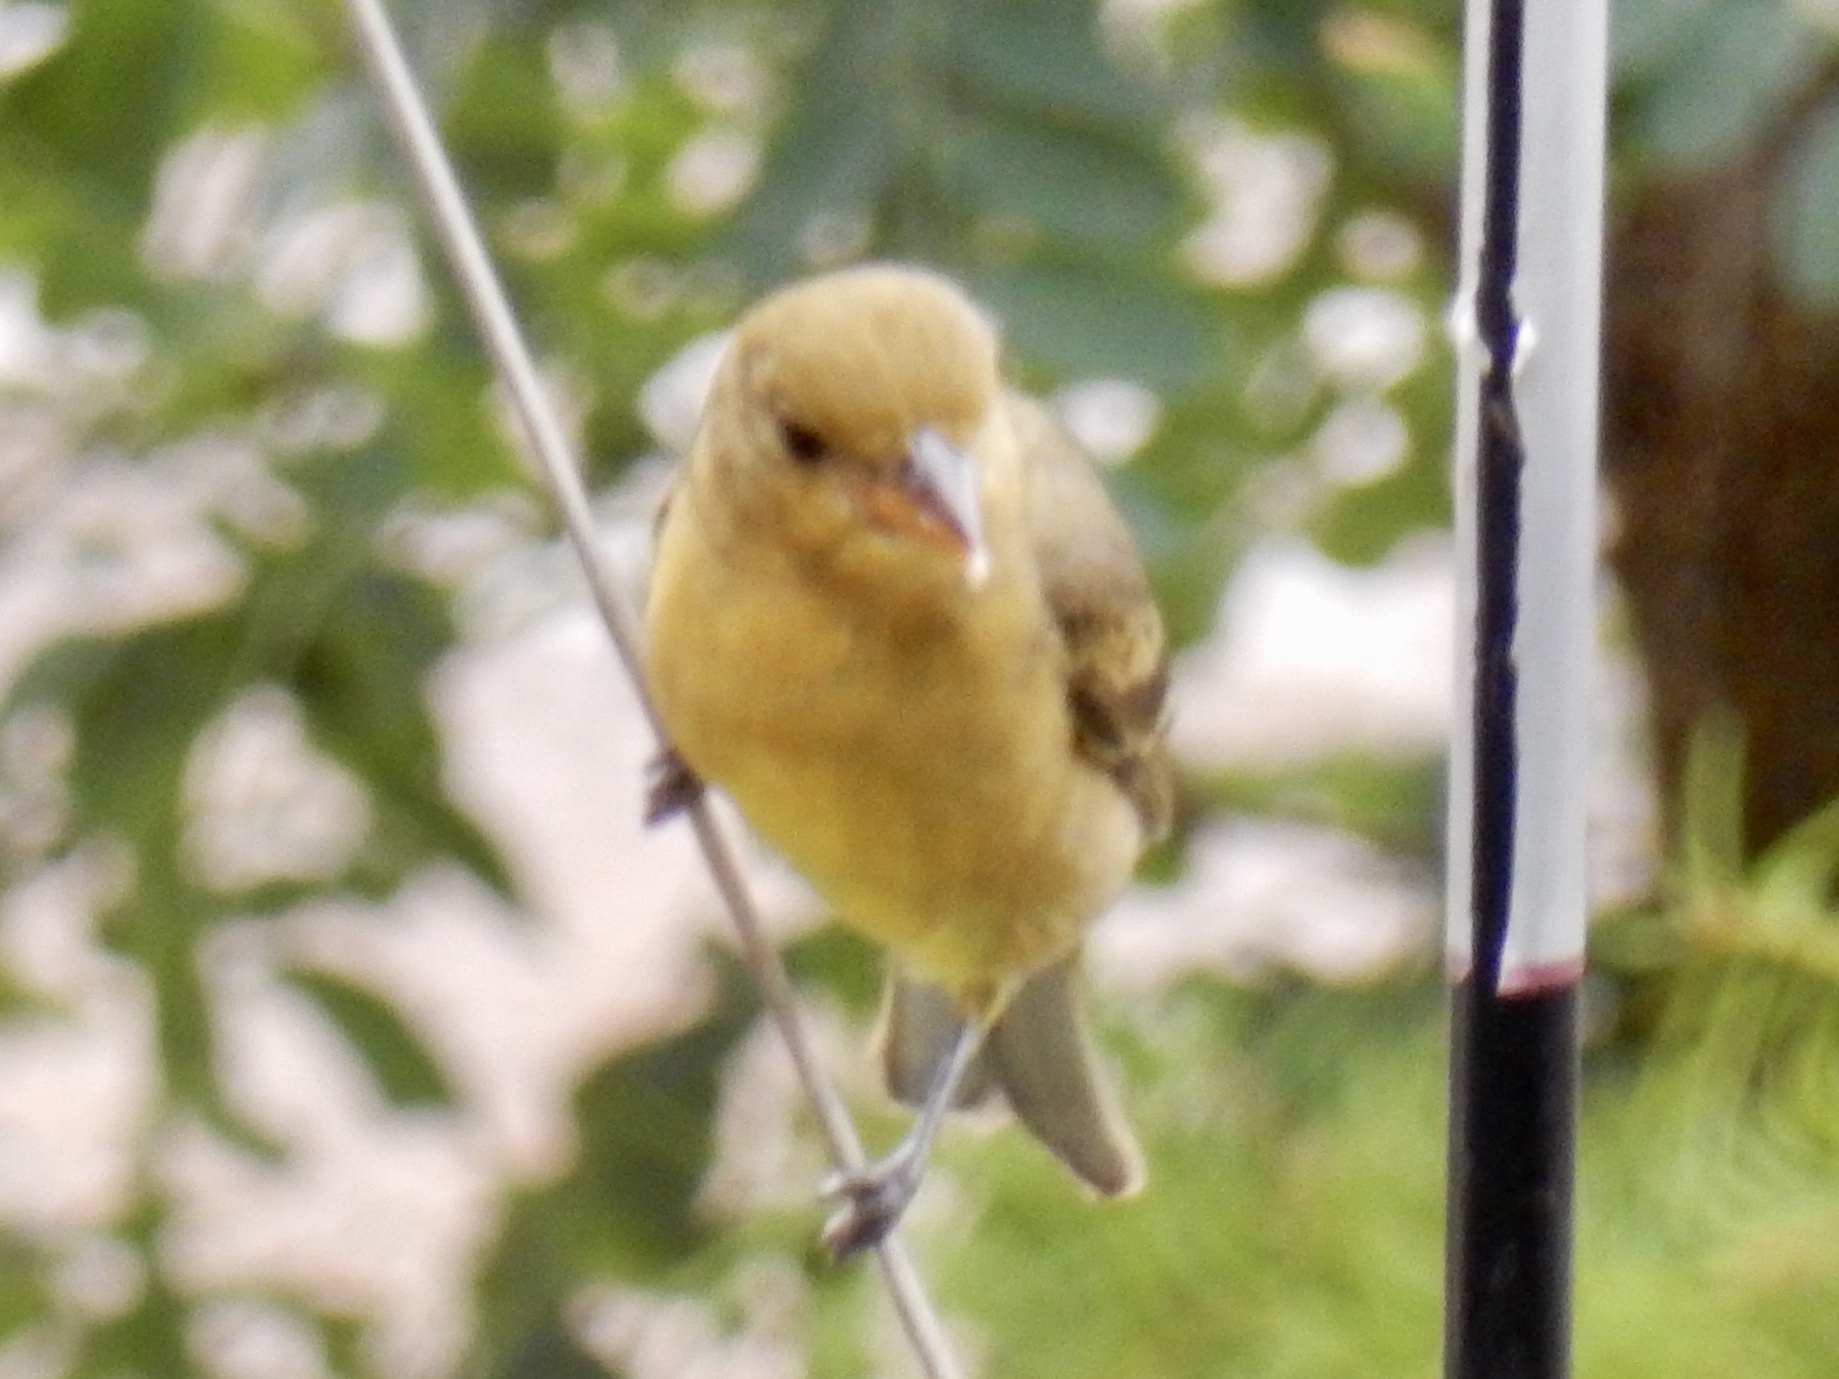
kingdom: Animalia
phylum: Chordata
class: Aves
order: Passeriformes
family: Cardinalidae
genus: Piranga
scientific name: Piranga ludoviciana
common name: Western tanager
